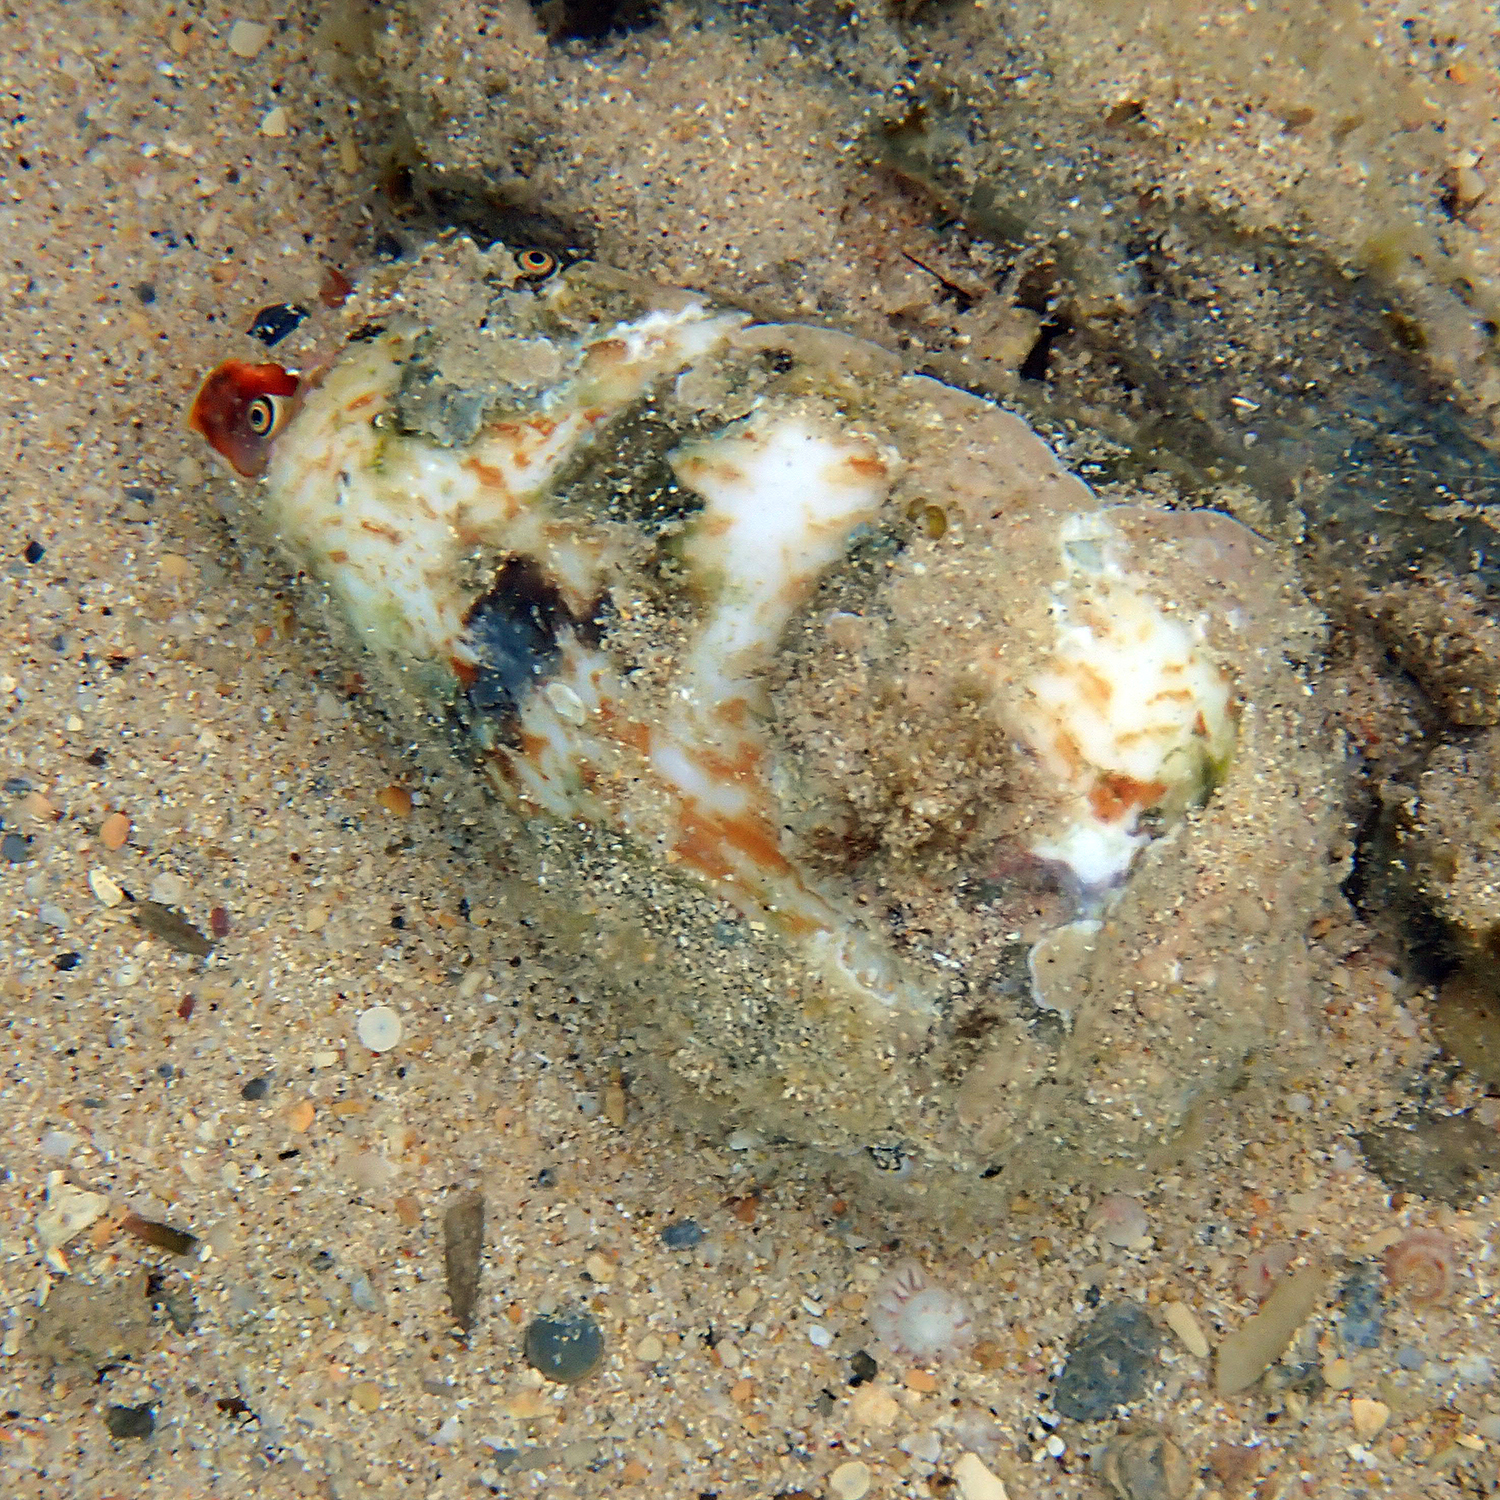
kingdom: Animalia
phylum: Mollusca
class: Gastropoda
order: Littorinimorpha
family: Strombidae
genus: Conomurex
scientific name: Conomurex luhuanus
